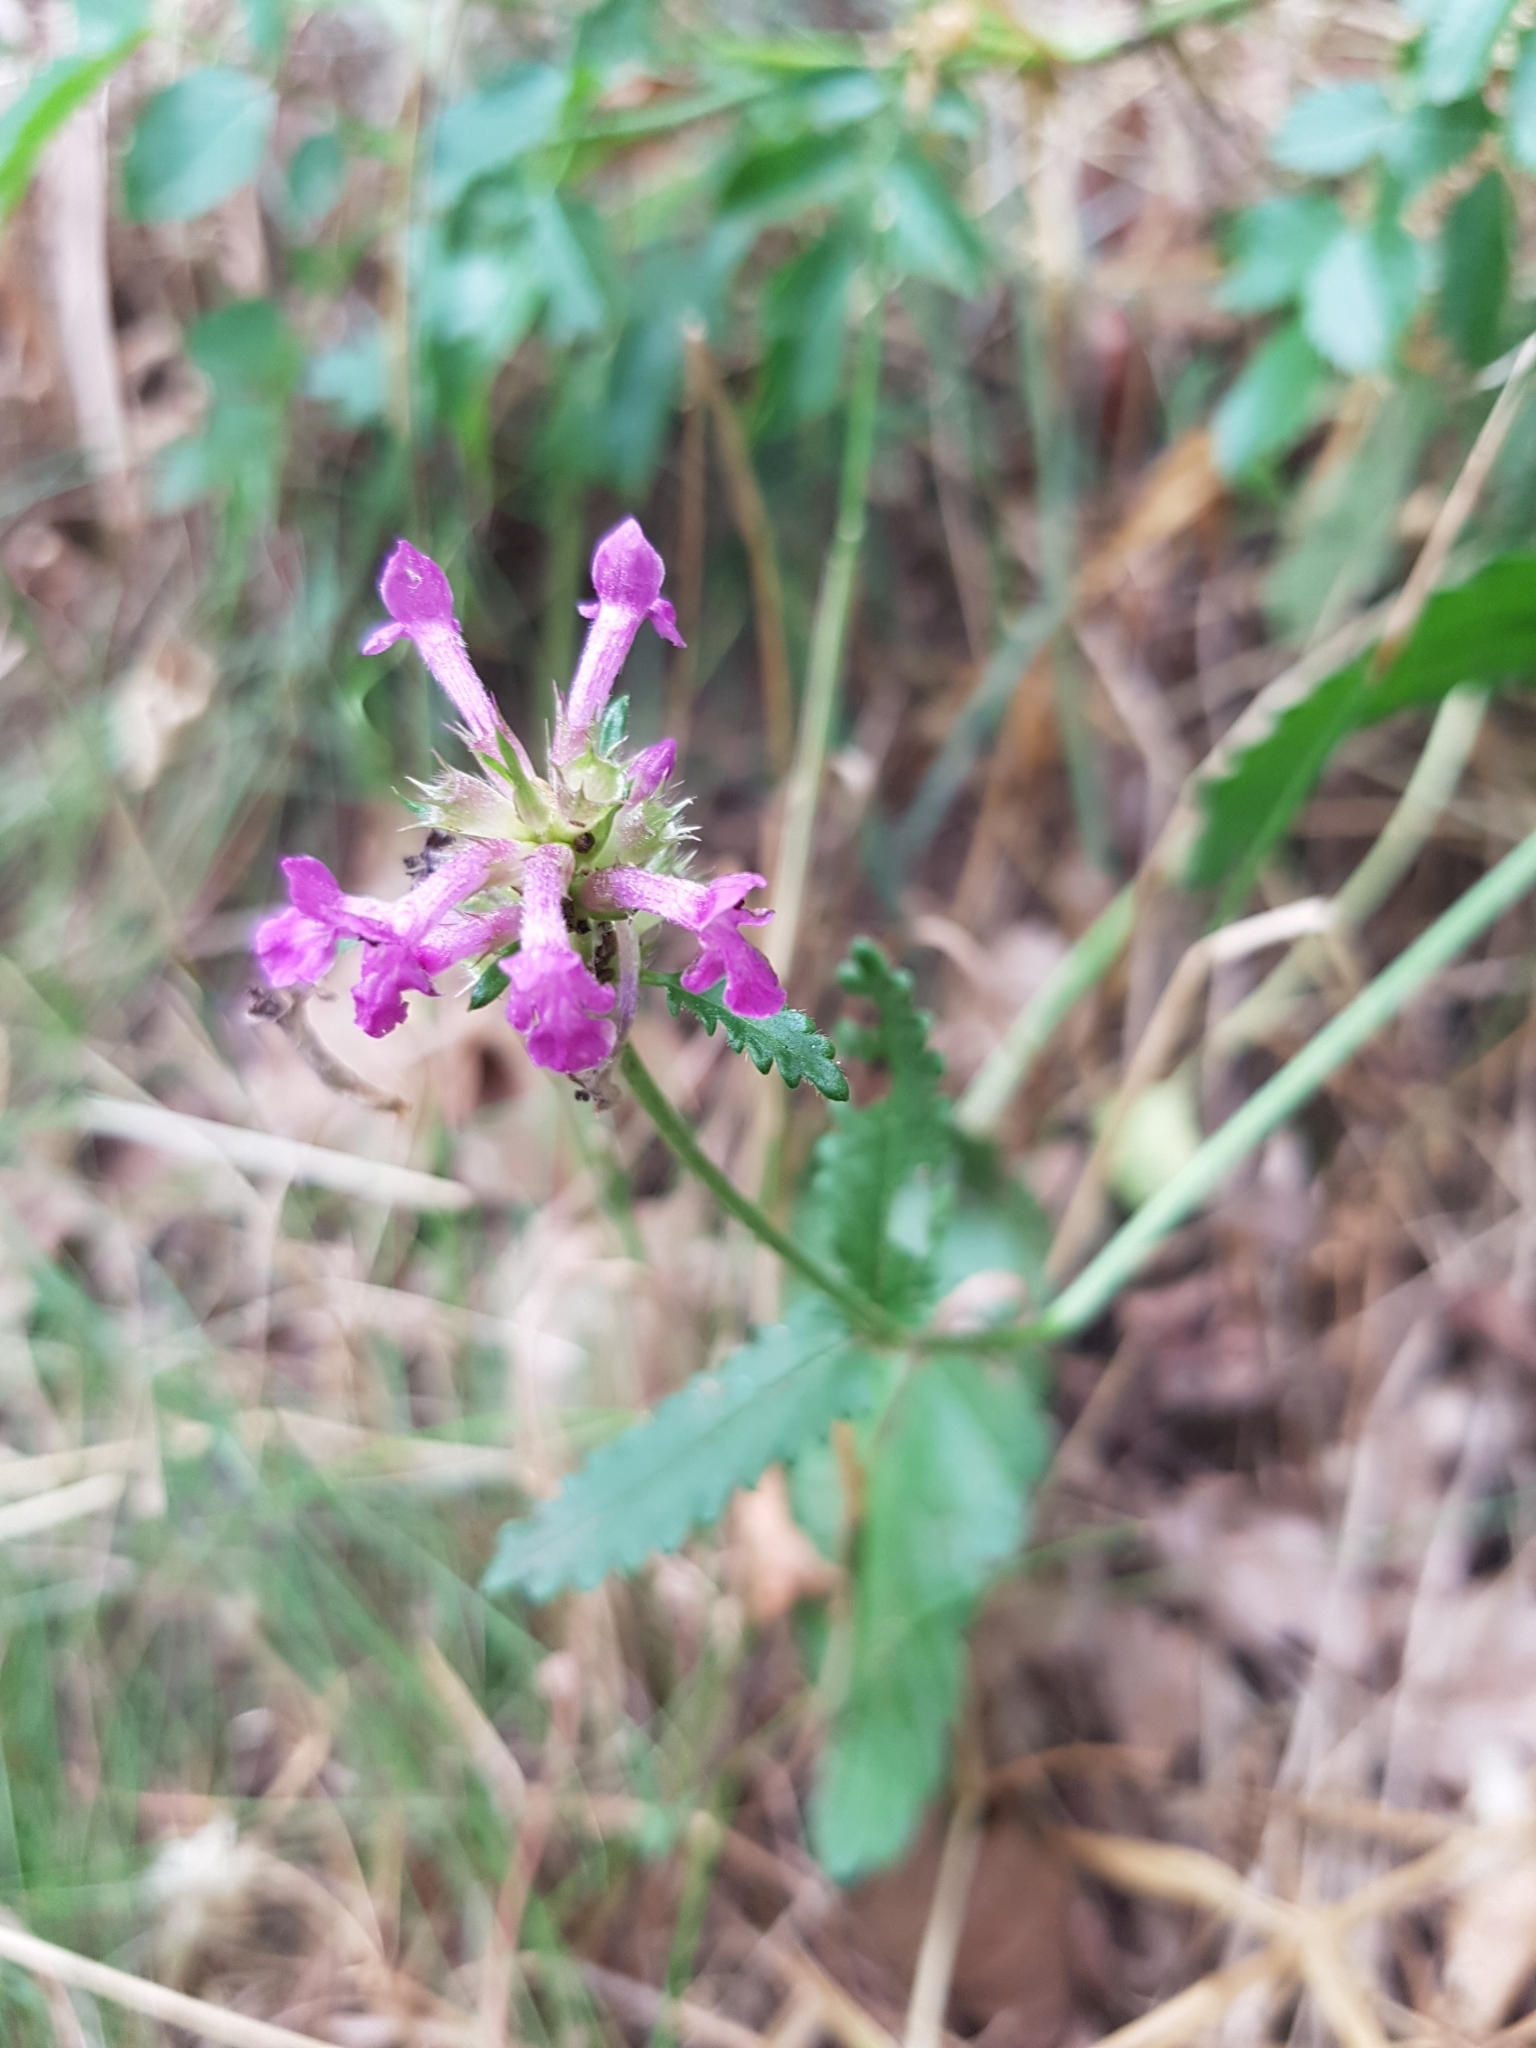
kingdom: Plantae
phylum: Tracheophyta
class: Magnoliopsida
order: Lamiales
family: Lamiaceae
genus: Betonica
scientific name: Betonica officinalis
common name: Bishop's-wort
